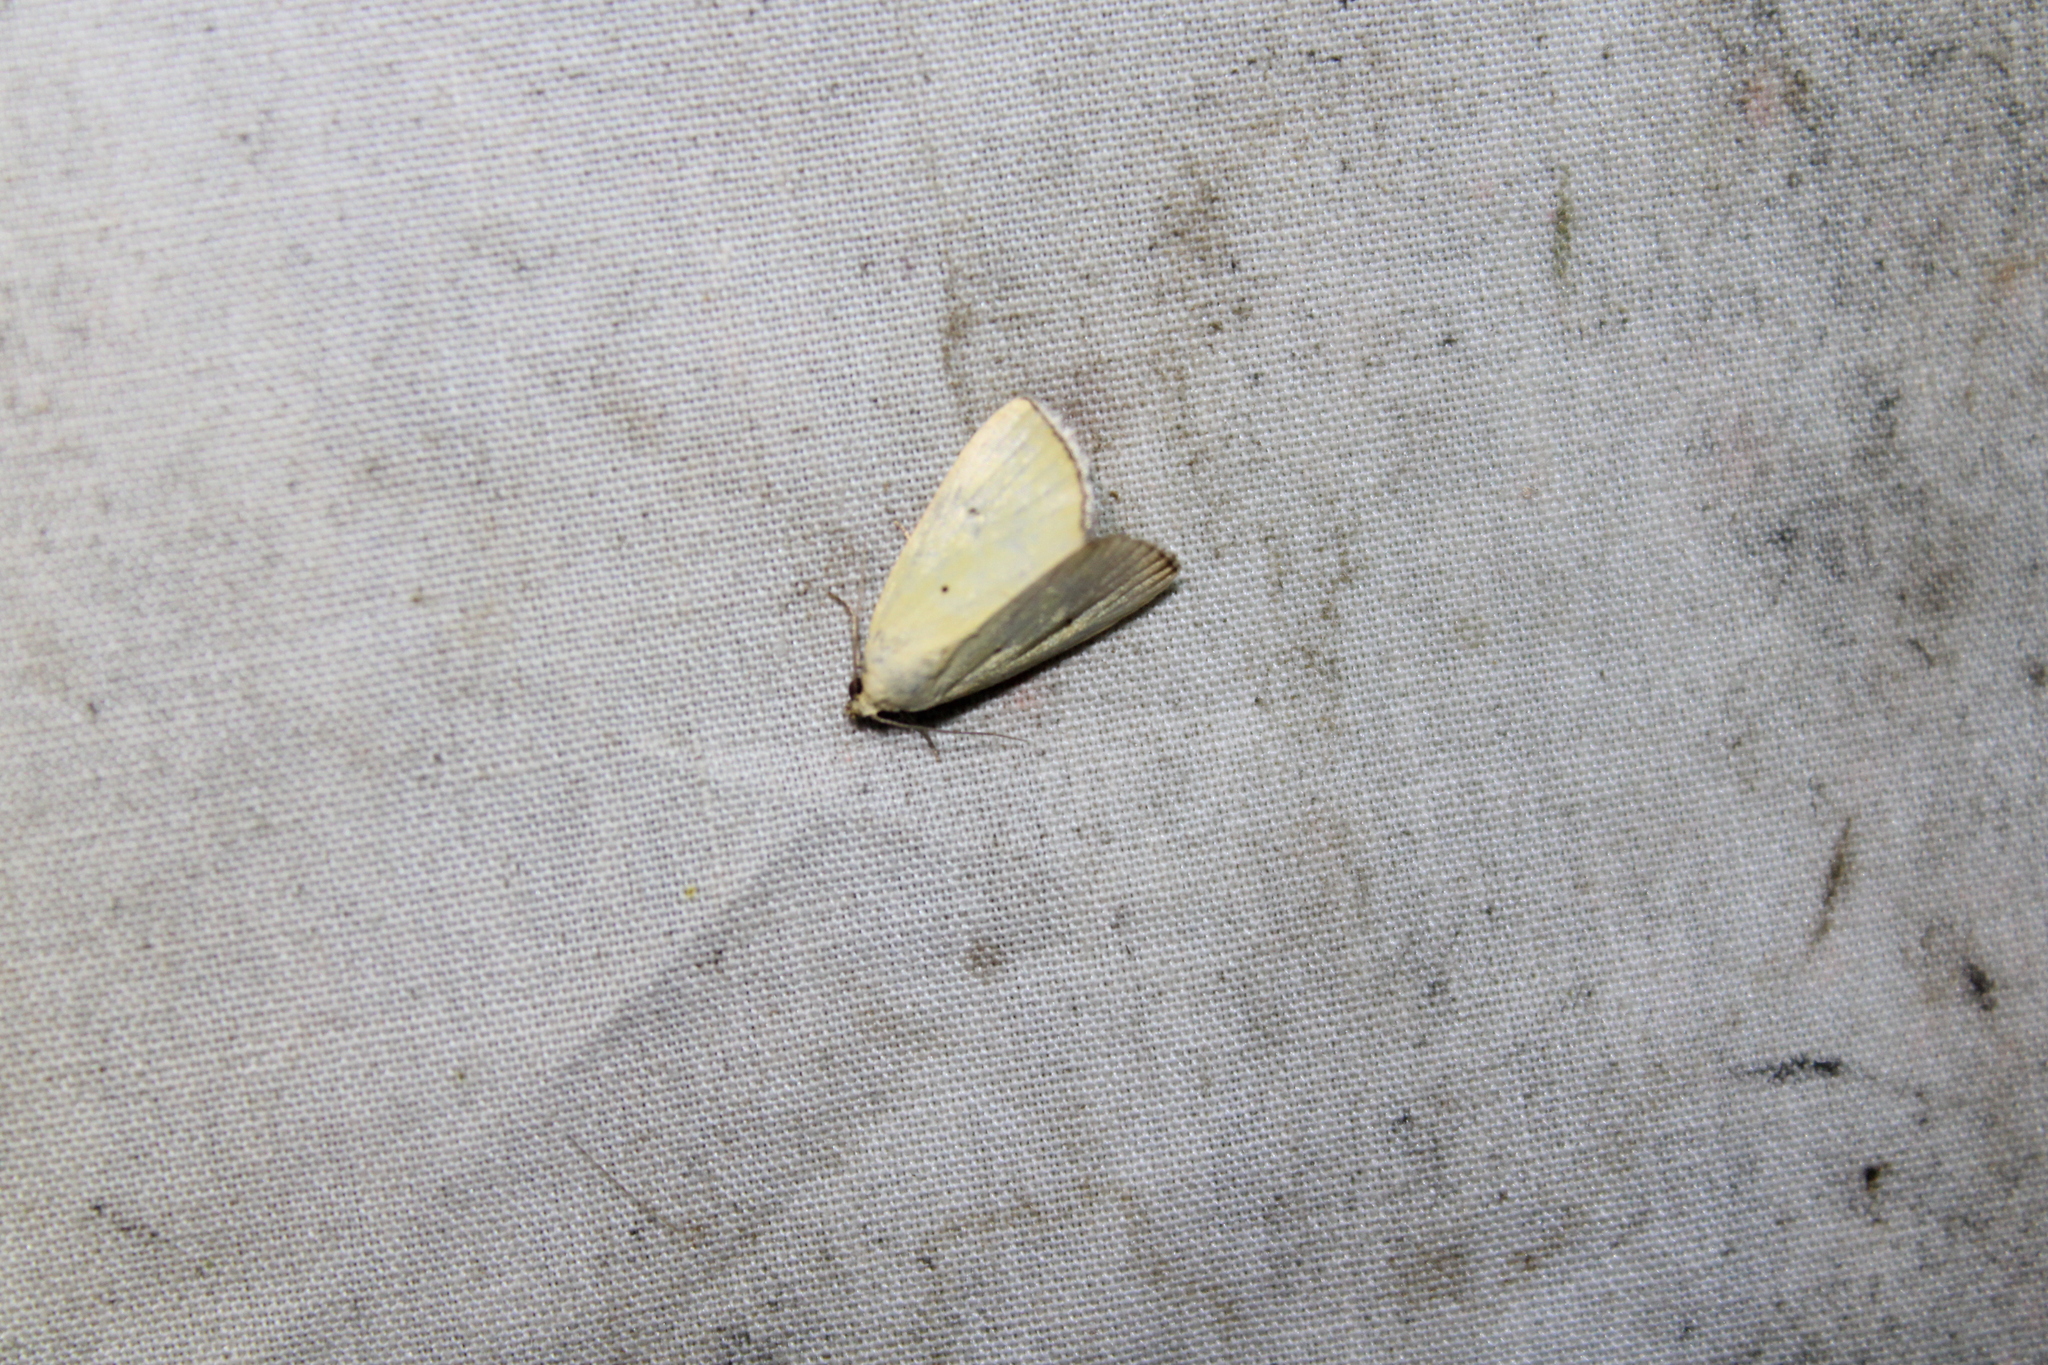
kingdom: Animalia
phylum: Arthropoda
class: Insecta
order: Lepidoptera
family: Noctuidae
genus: Marimatha
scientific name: Marimatha nigrofimbria
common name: Black-bordered lemon moth
